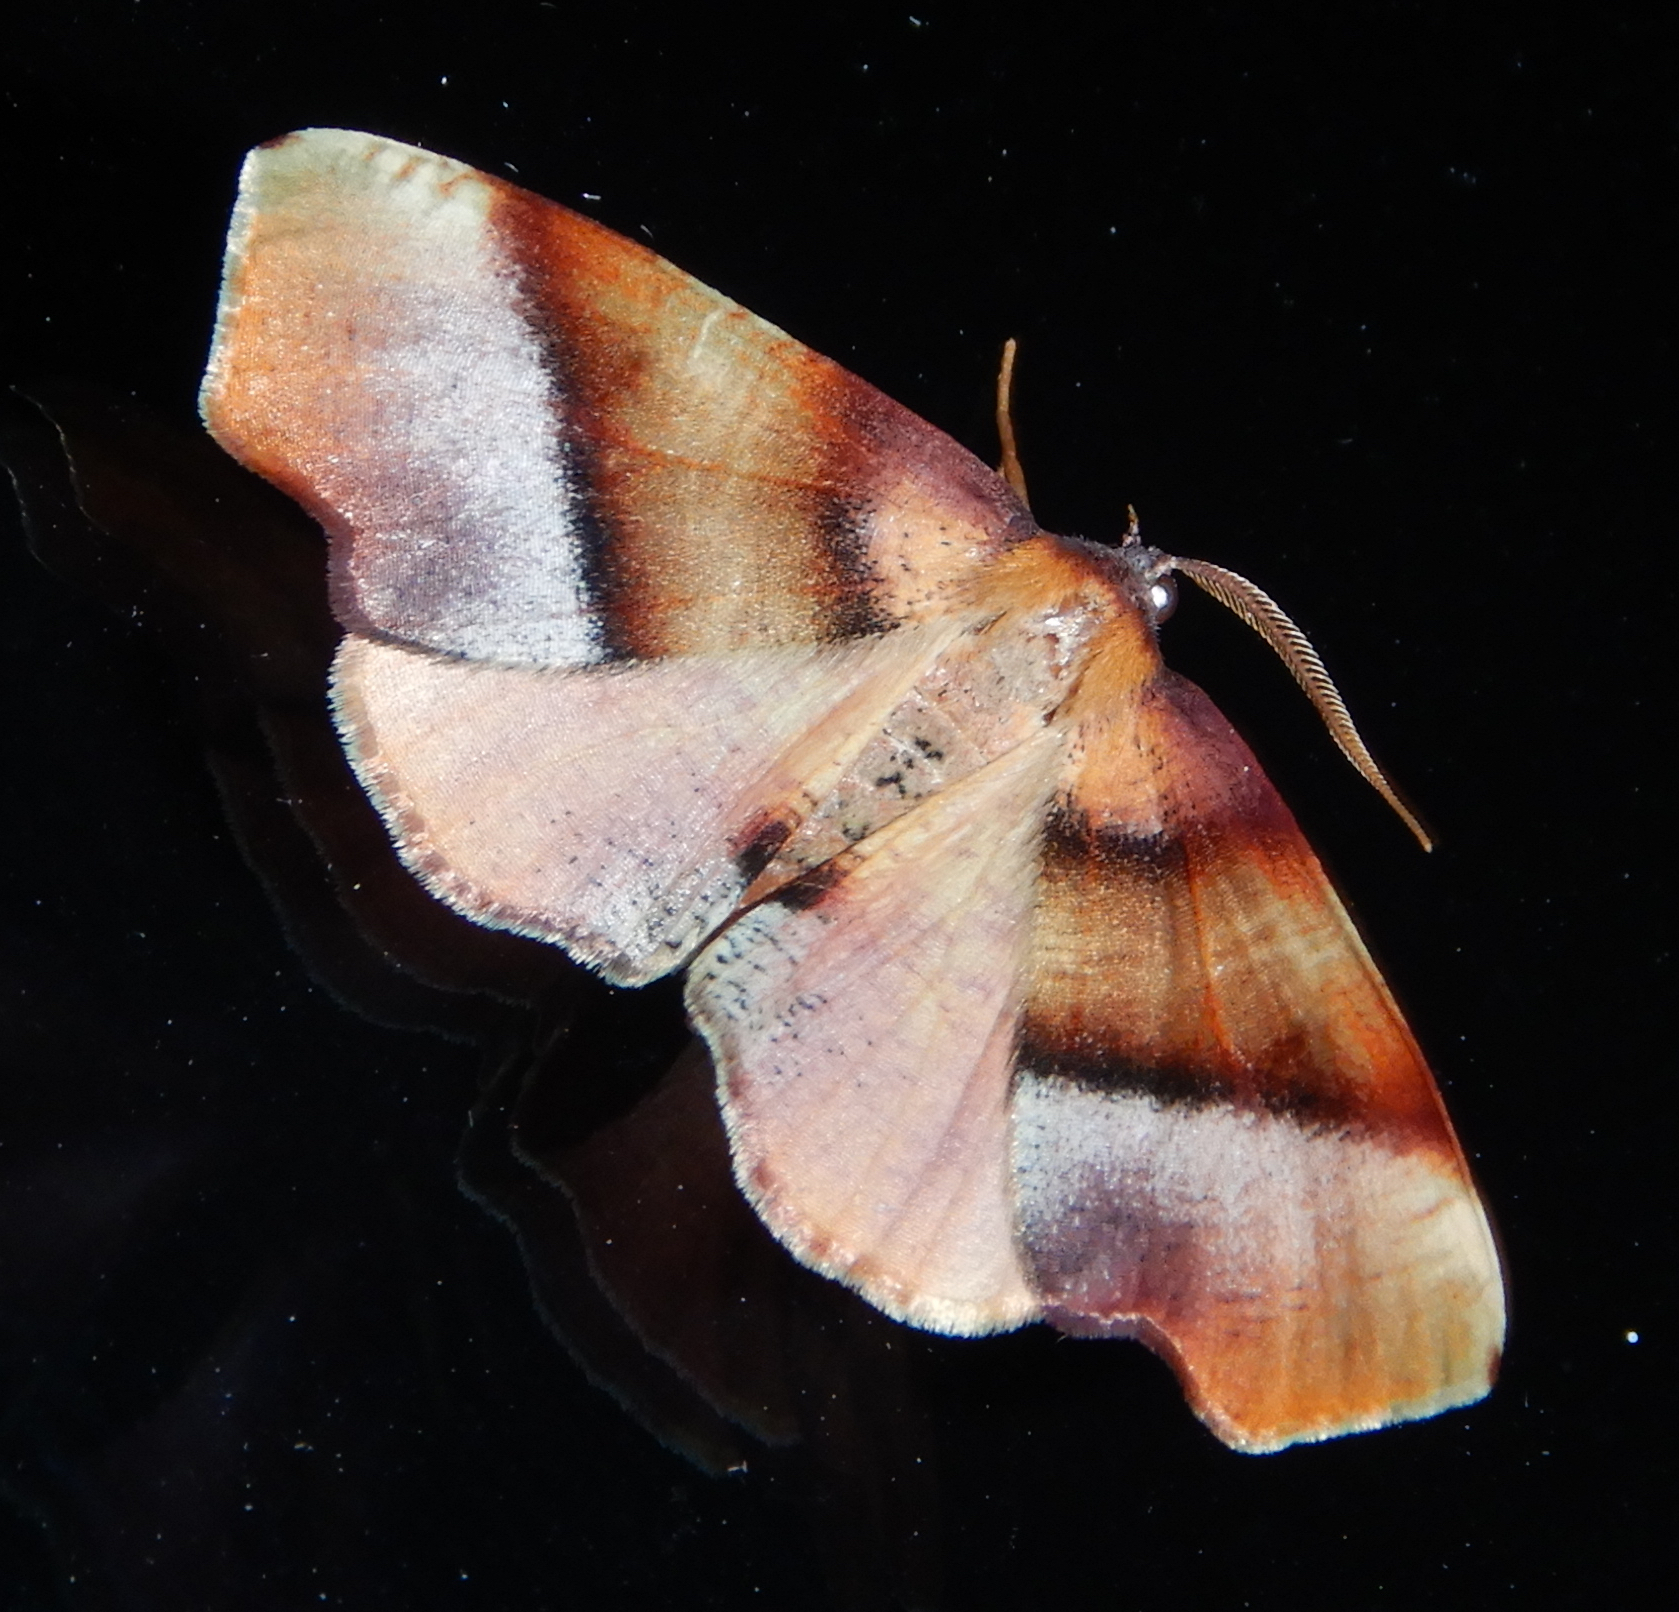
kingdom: Animalia
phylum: Arthropoda
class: Insecta
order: Lepidoptera
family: Geometridae
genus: Plagodis
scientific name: Plagodis phlogosaria
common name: Straight-lined plagodis
